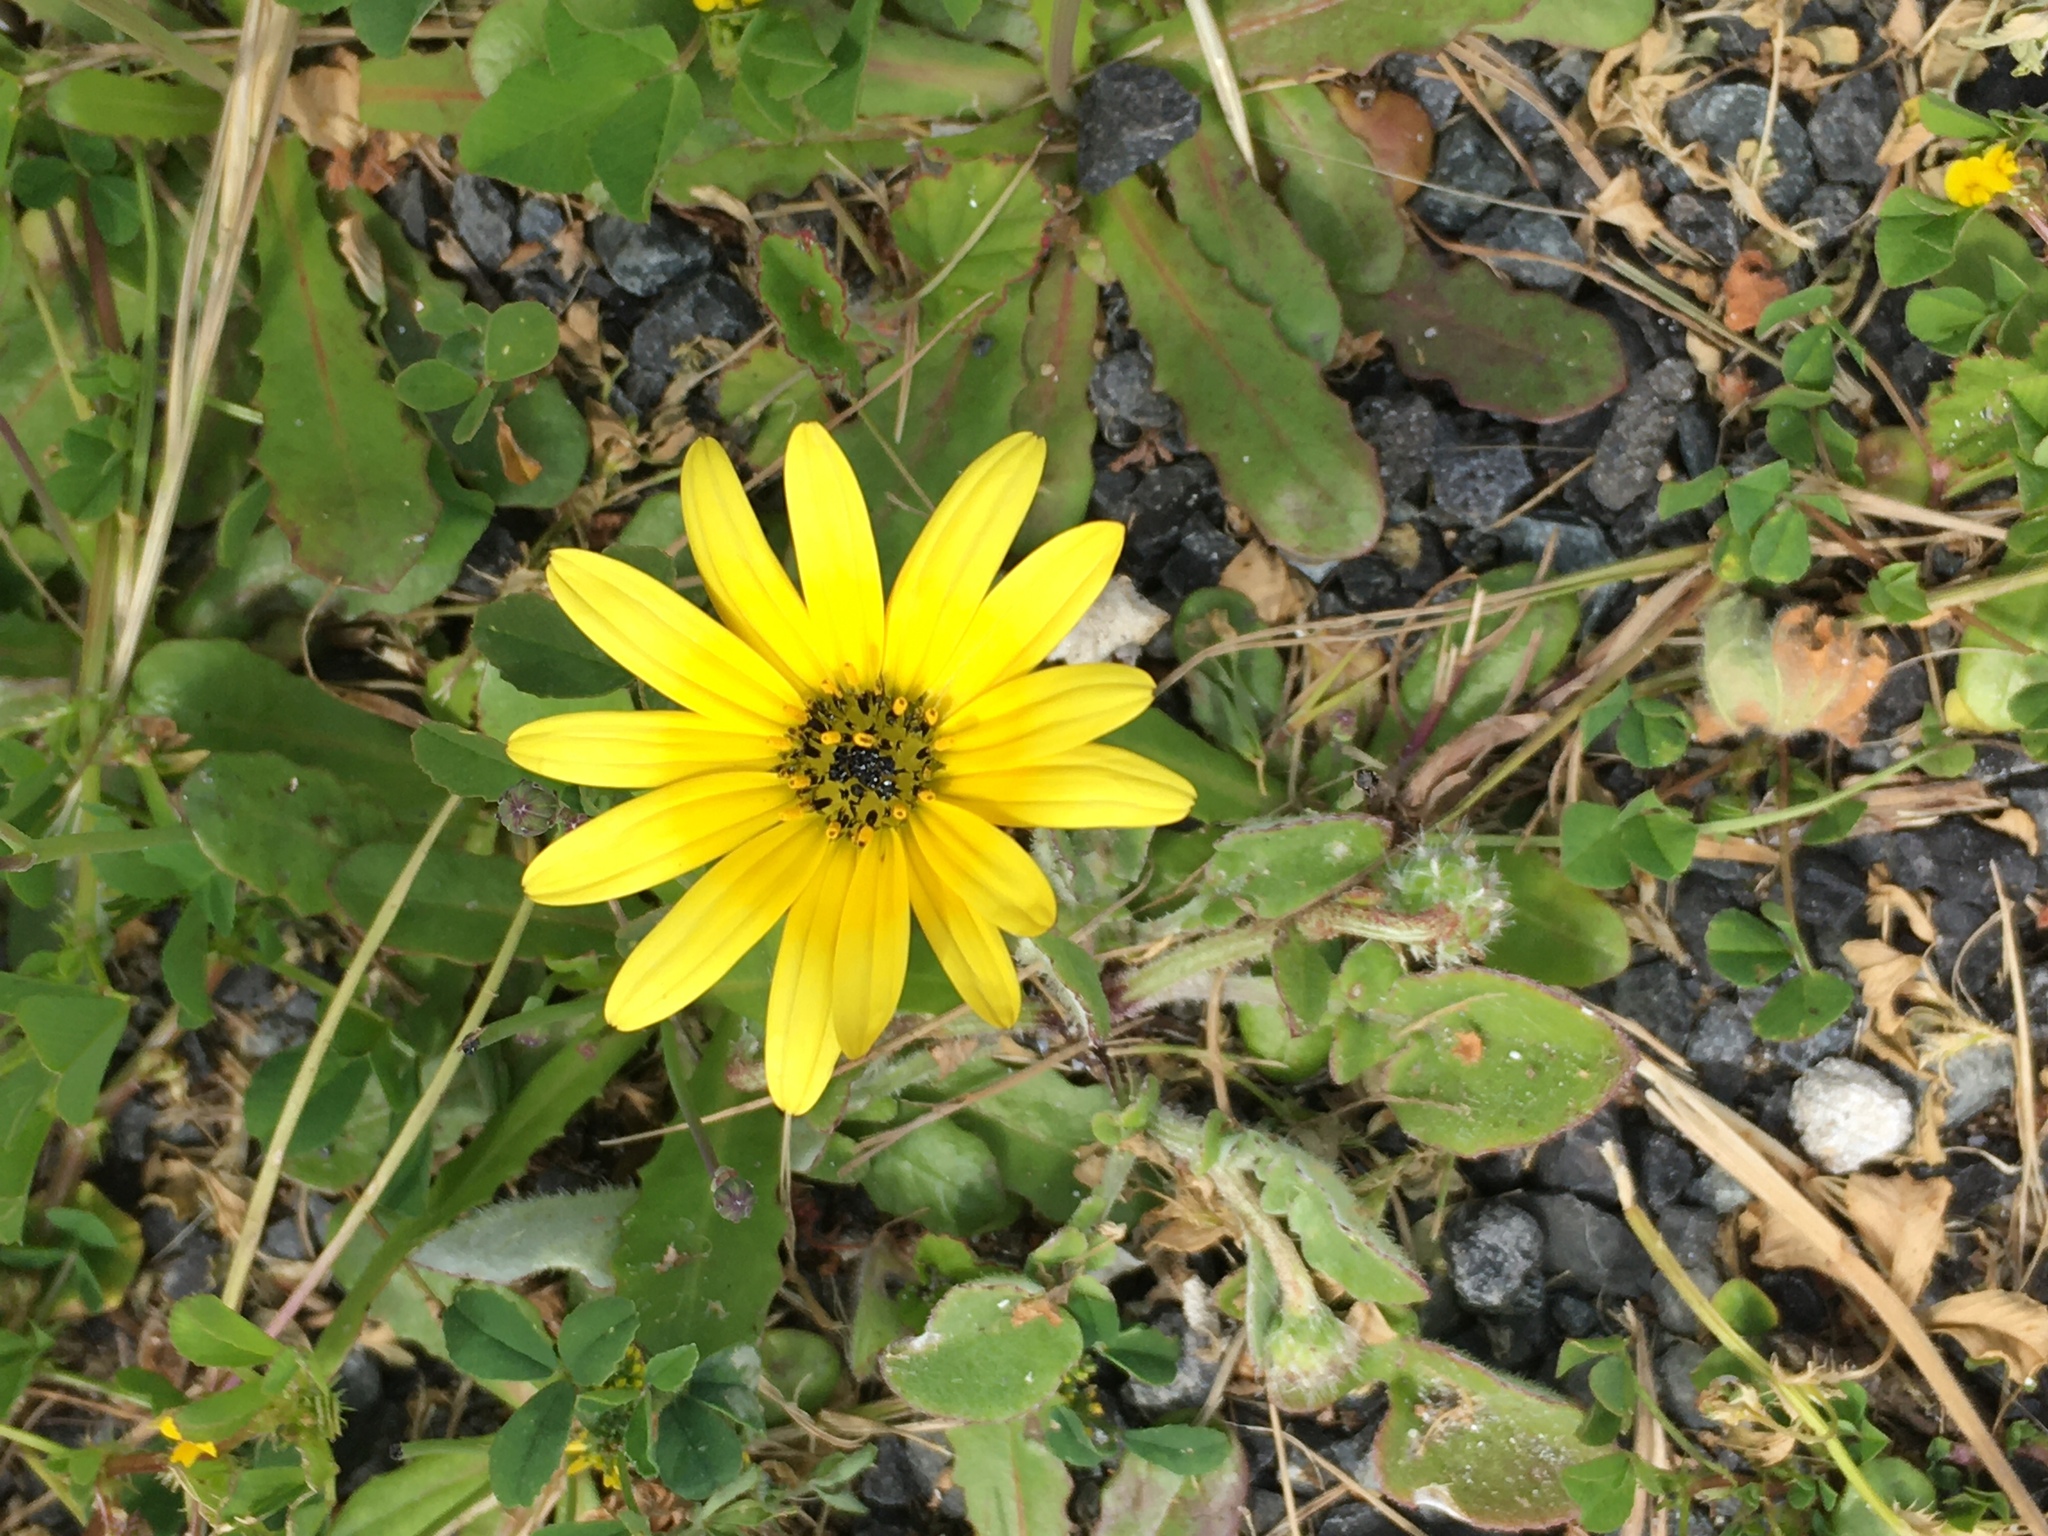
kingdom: Plantae
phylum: Tracheophyta
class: Magnoliopsida
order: Asterales
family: Asteraceae
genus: Arctotheca
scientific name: Arctotheca calendula
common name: Capeweed
